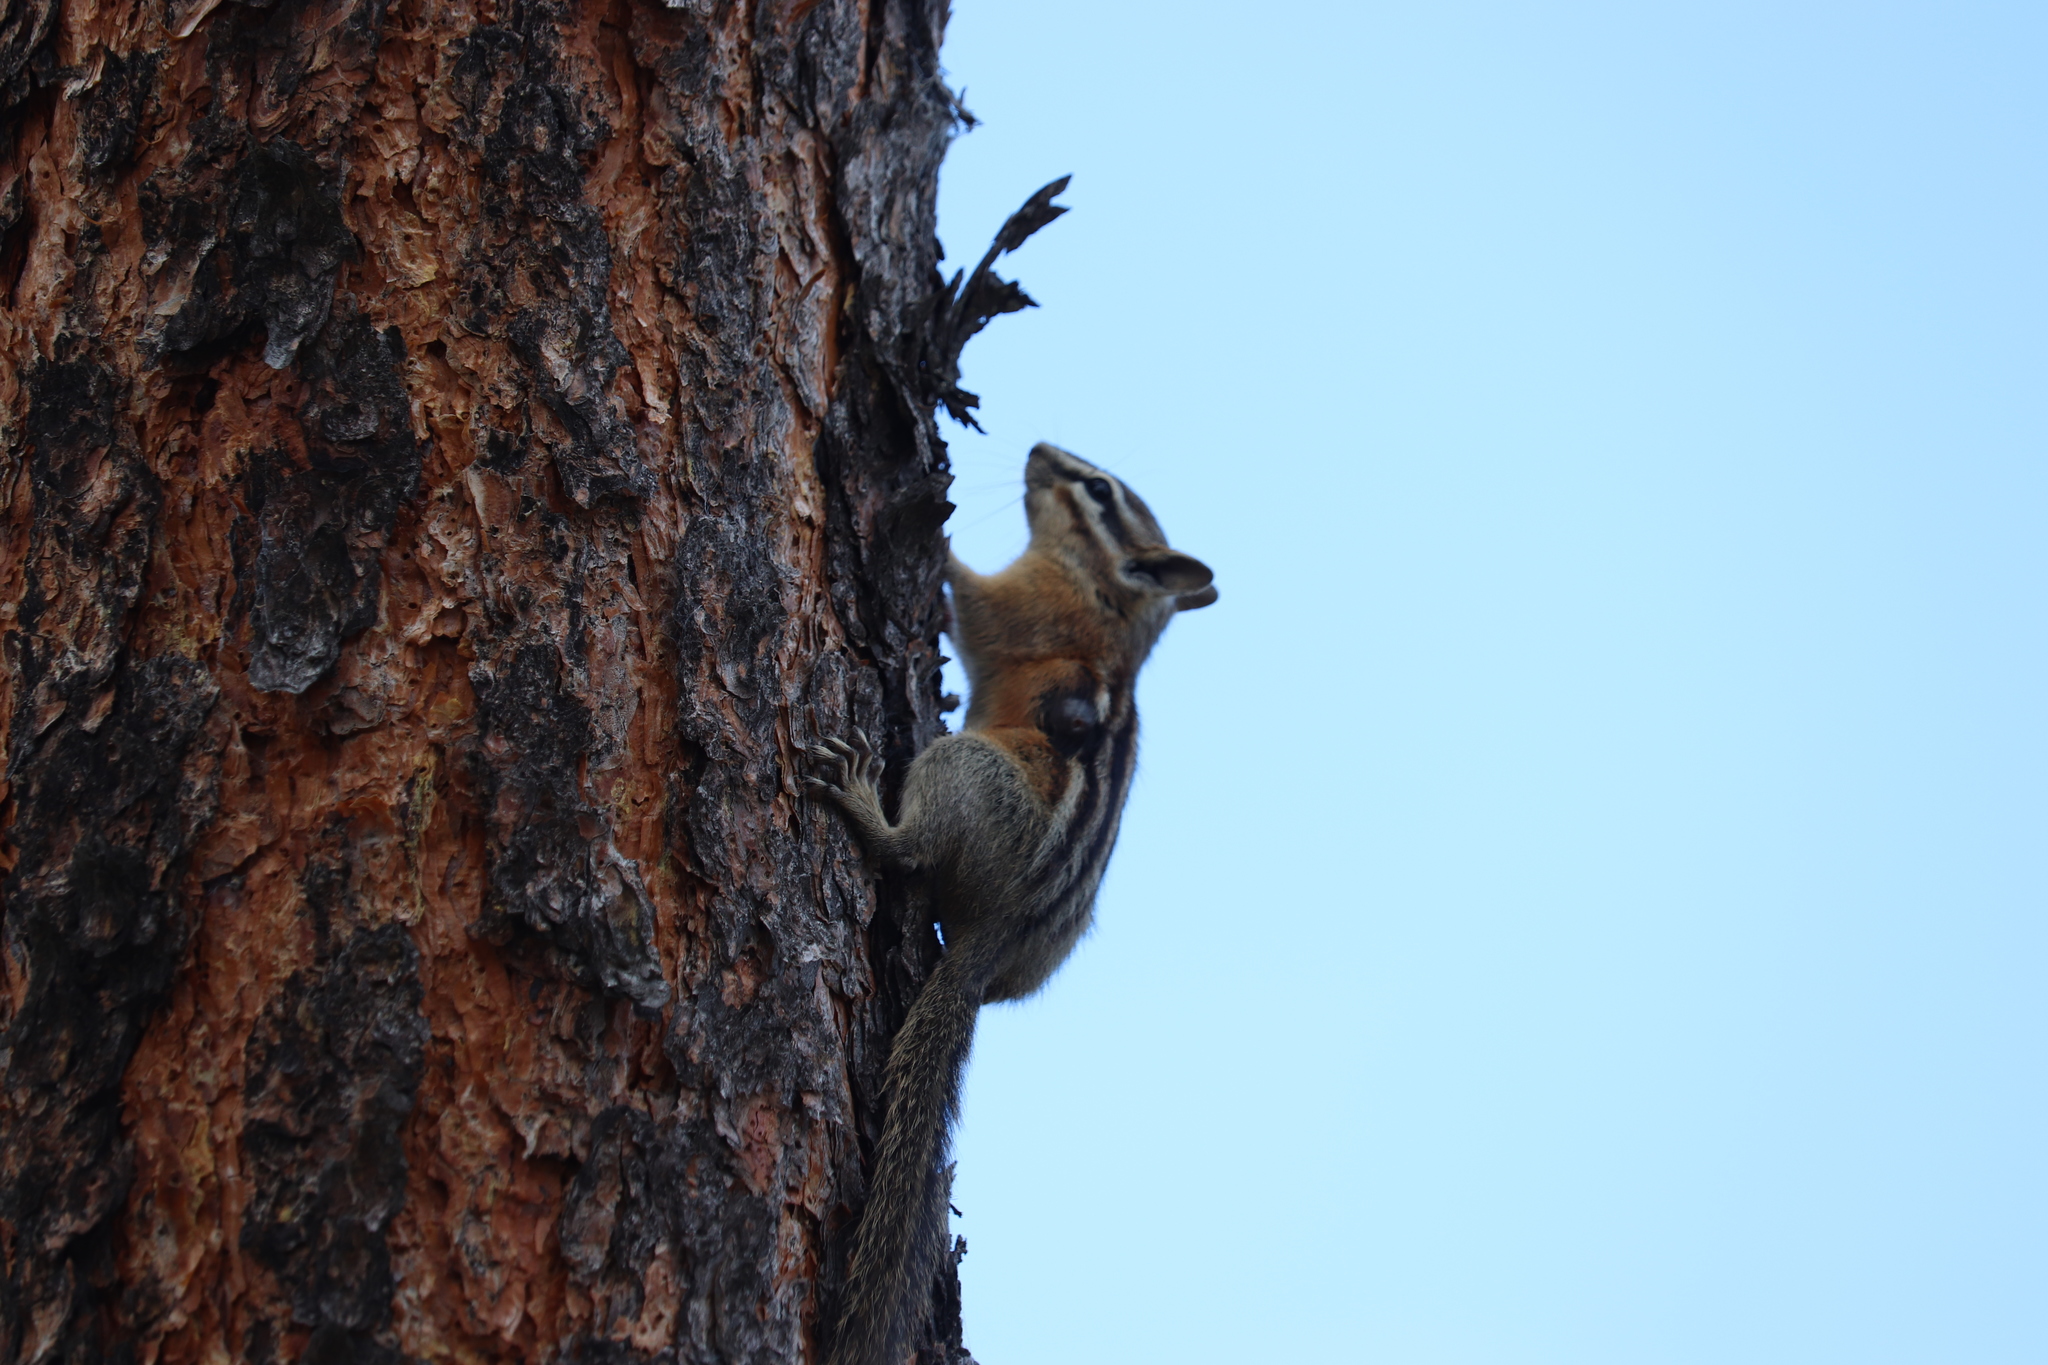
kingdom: Animalia
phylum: Chordata
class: Mammalia
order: Rodentia
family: Sciuridae
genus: Tamias
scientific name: Tamias amoenus
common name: Yellow-pine chipmunk
